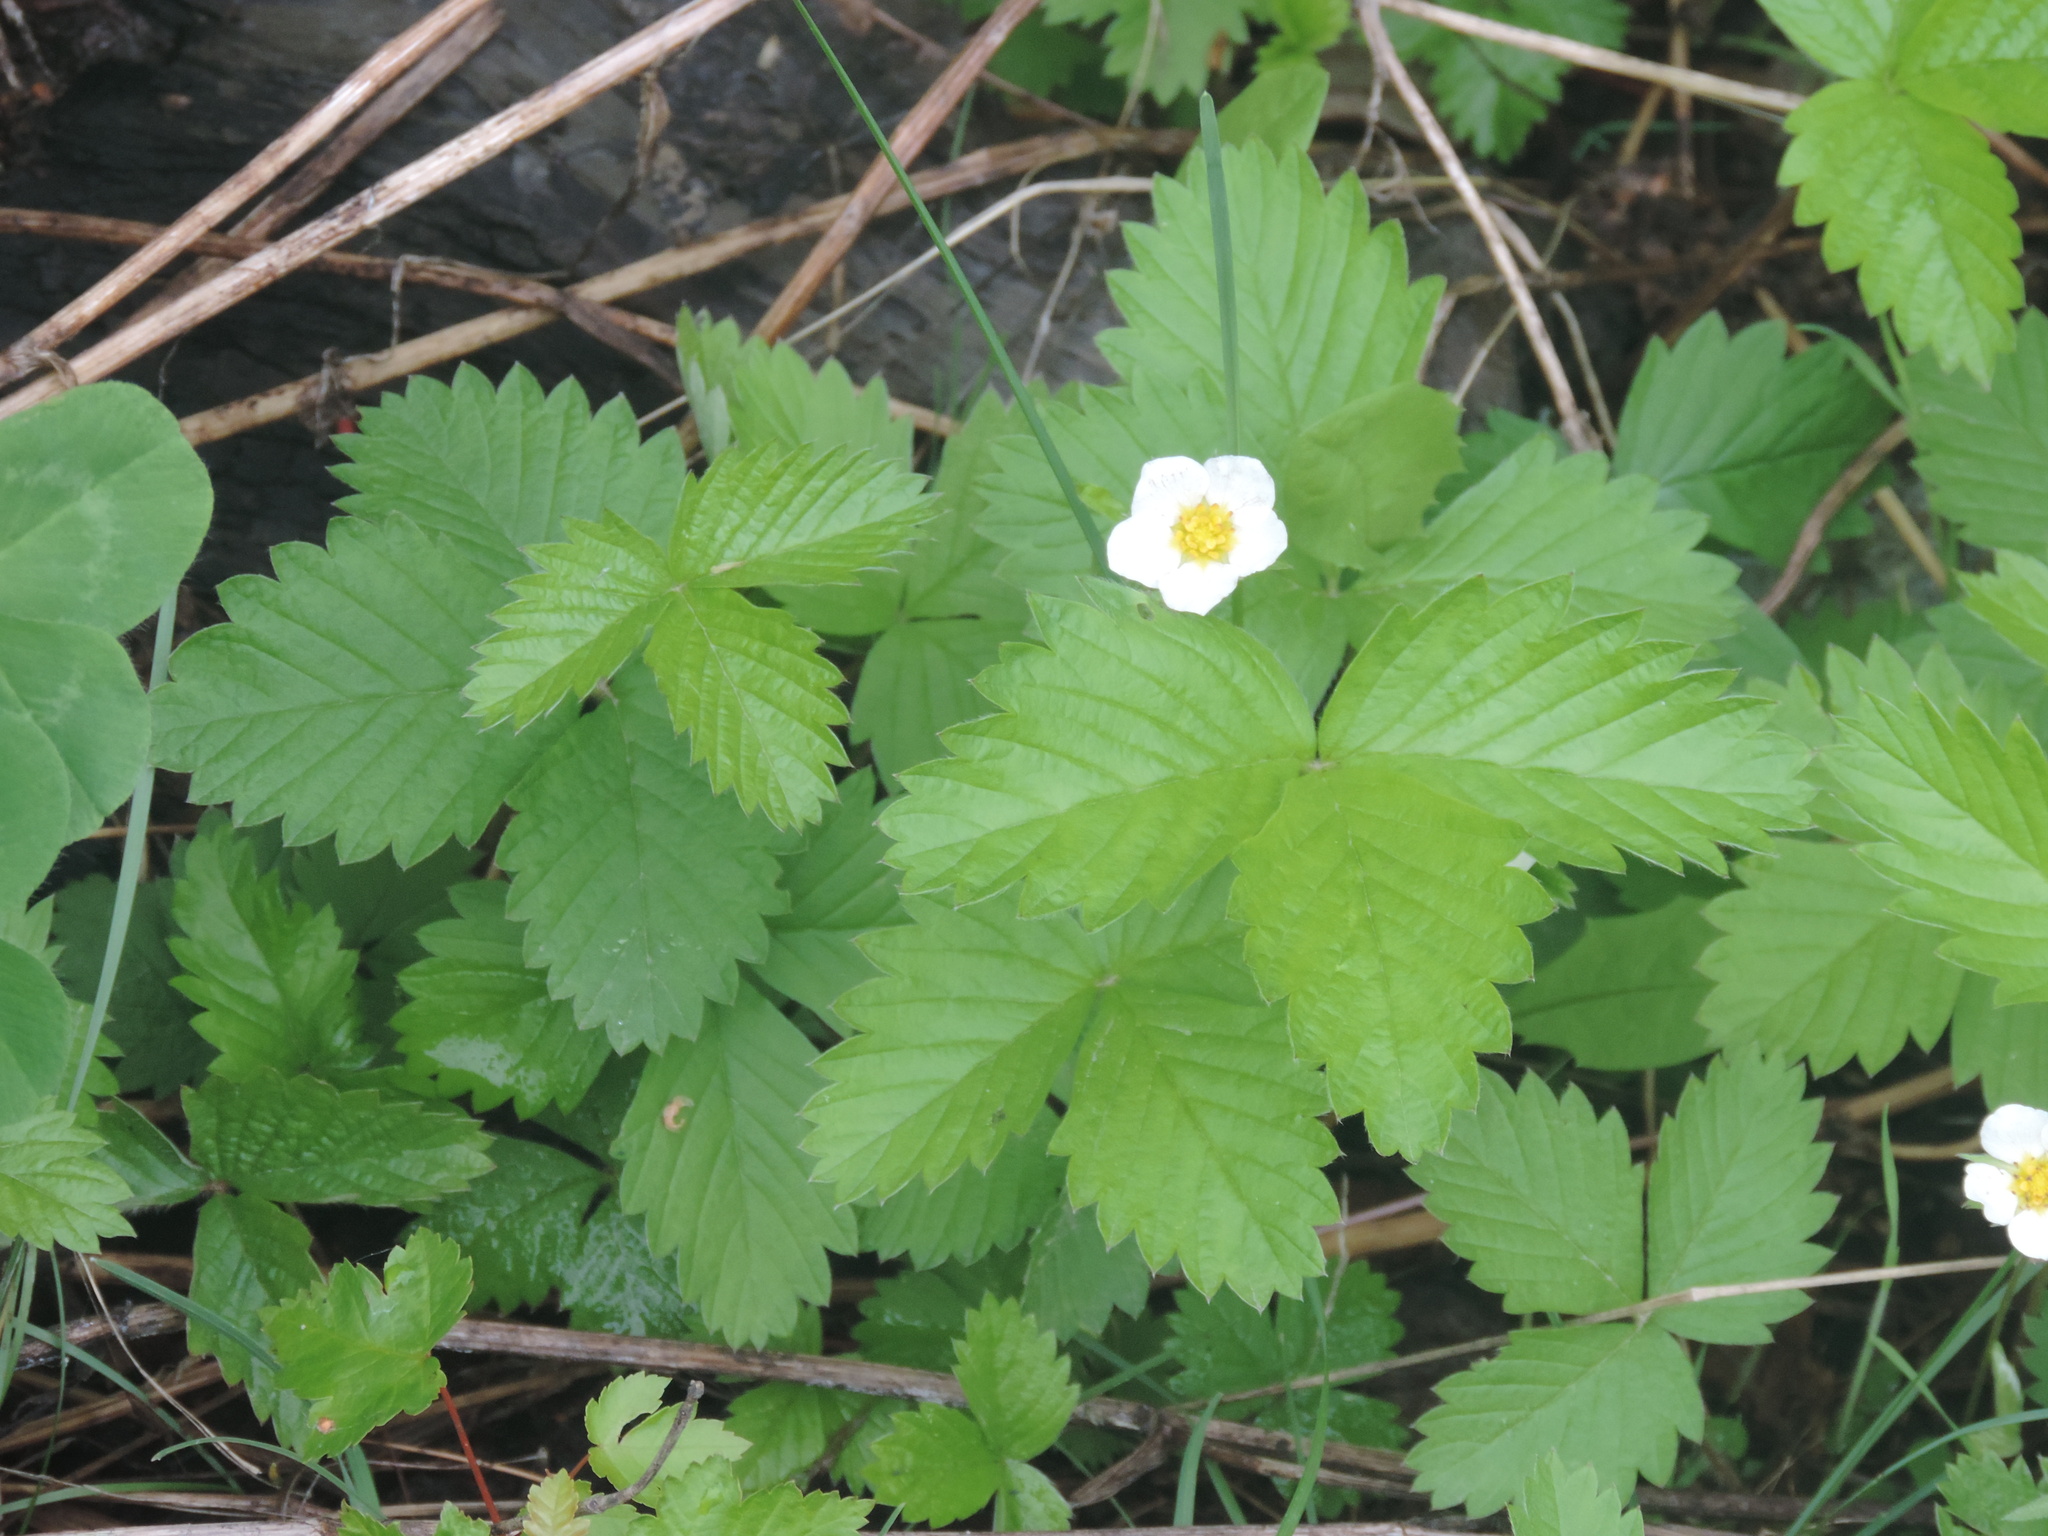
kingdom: Plantae
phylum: Tracheophyta
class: Magnoliopsida
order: Rosales
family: Rosaceae
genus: Fragaria
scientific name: Fragaria vesca
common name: Wild strawberry
